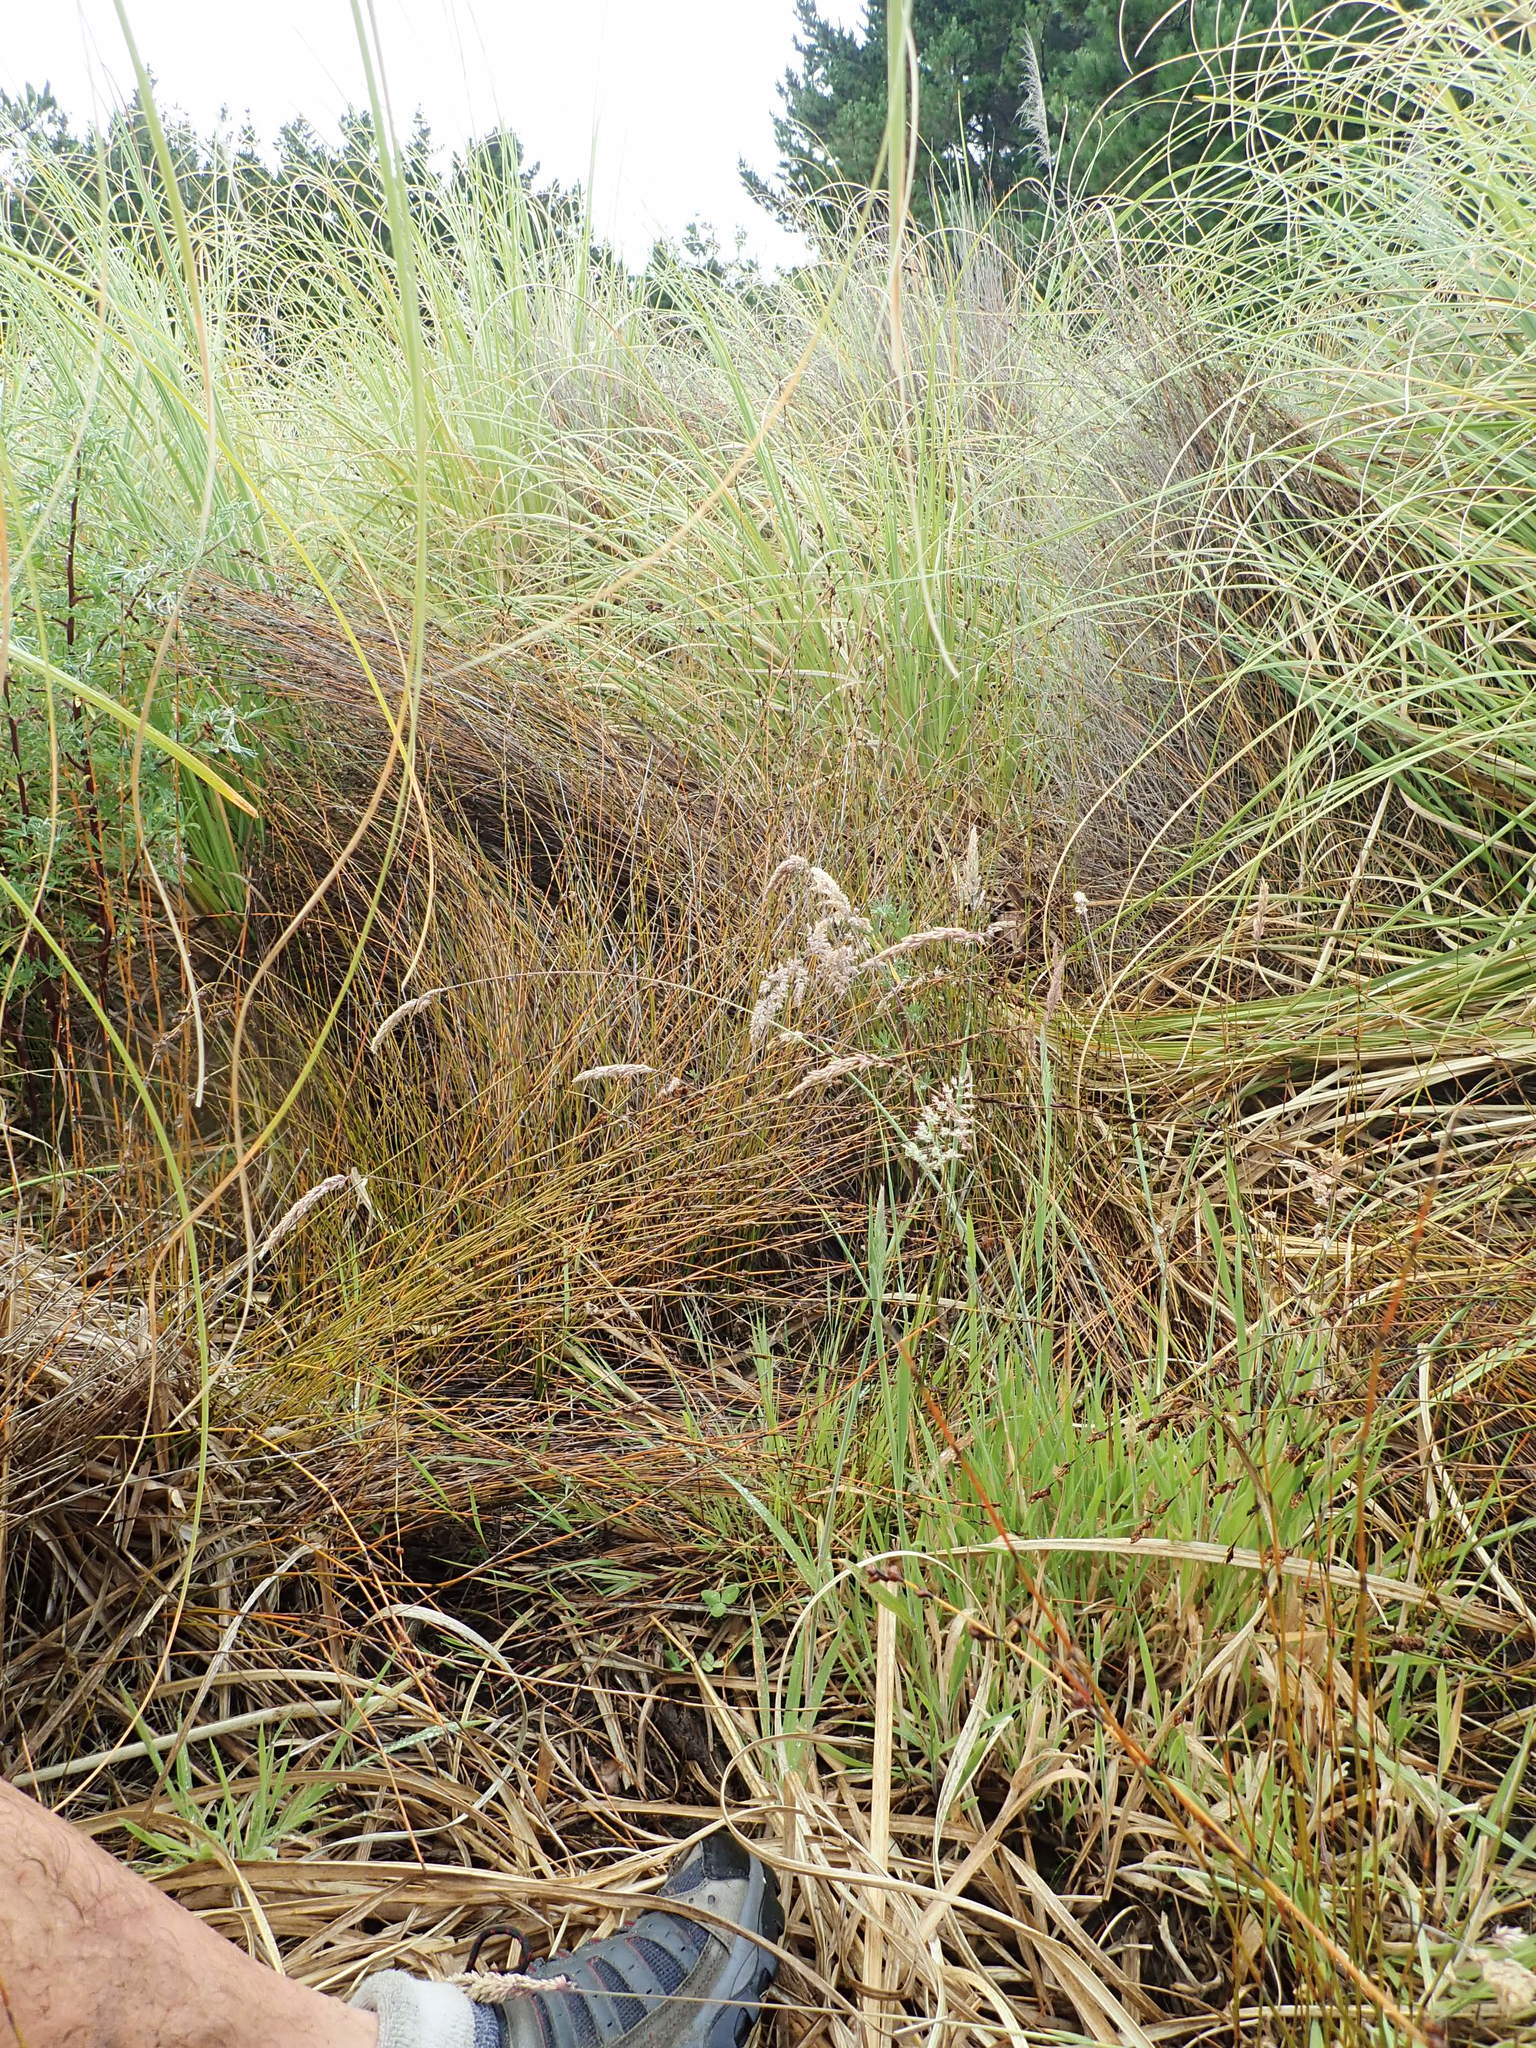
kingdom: Plantae
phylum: Tracheophyta
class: Liliopsida
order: Poales
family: Poaceae
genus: Holcus
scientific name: Holcus lanatus
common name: Yorkshire-fog
